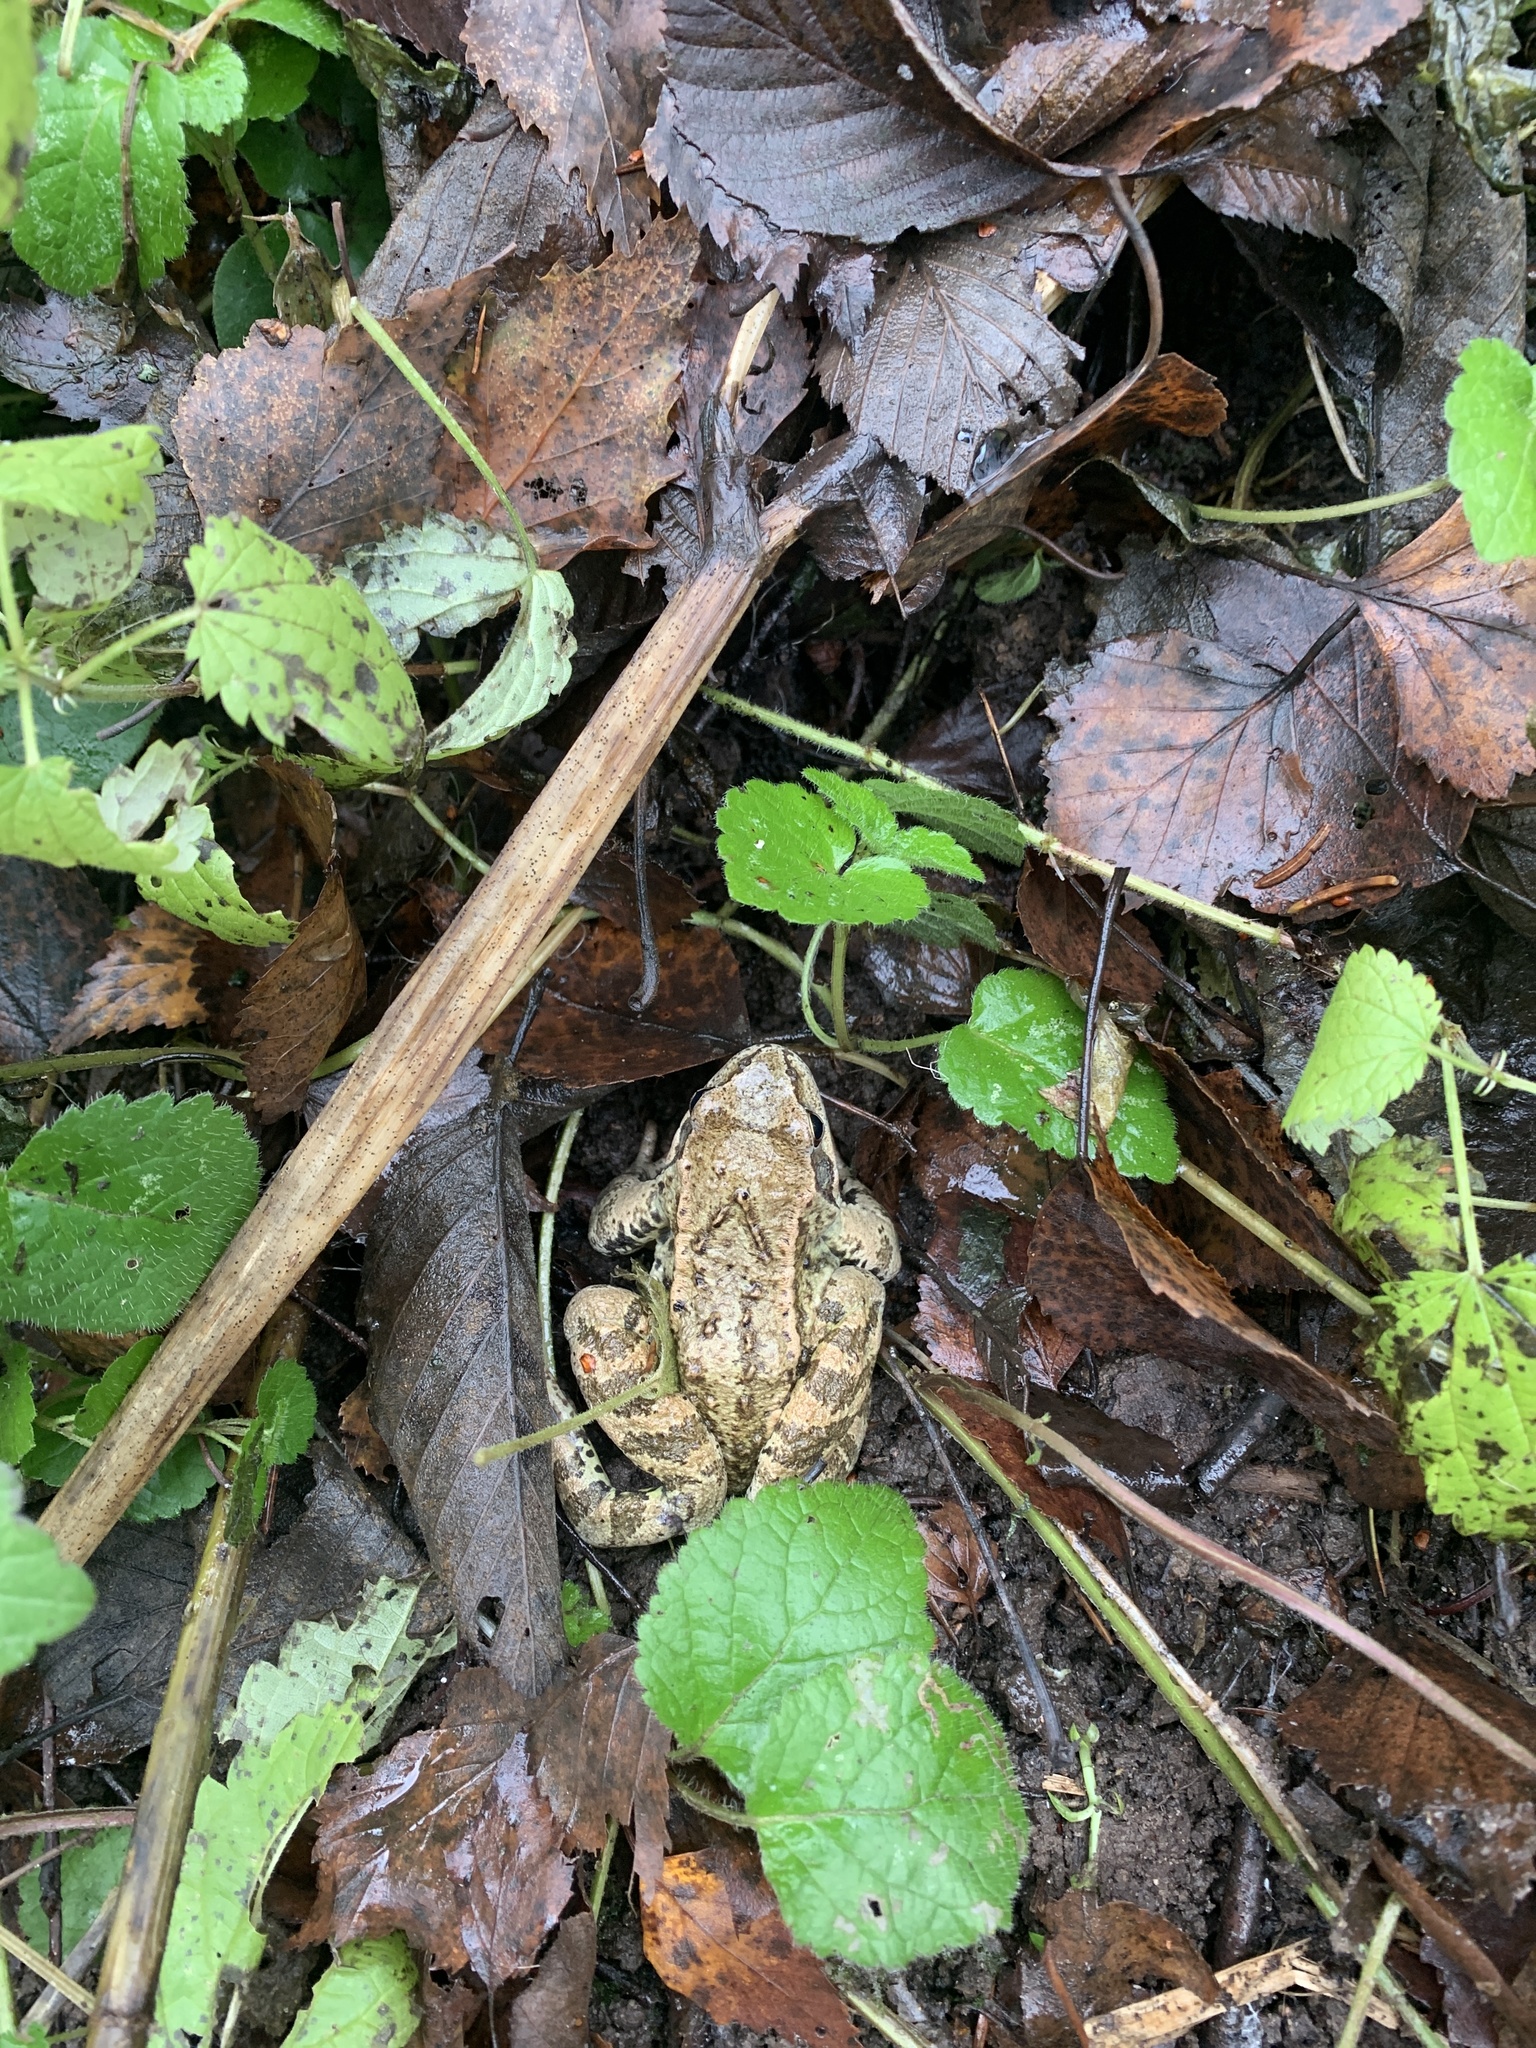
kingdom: Animalia
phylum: Chordata
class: Amphibia
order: Anura
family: Ranidae
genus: Rana
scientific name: Rana temporaria
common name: Common frog
